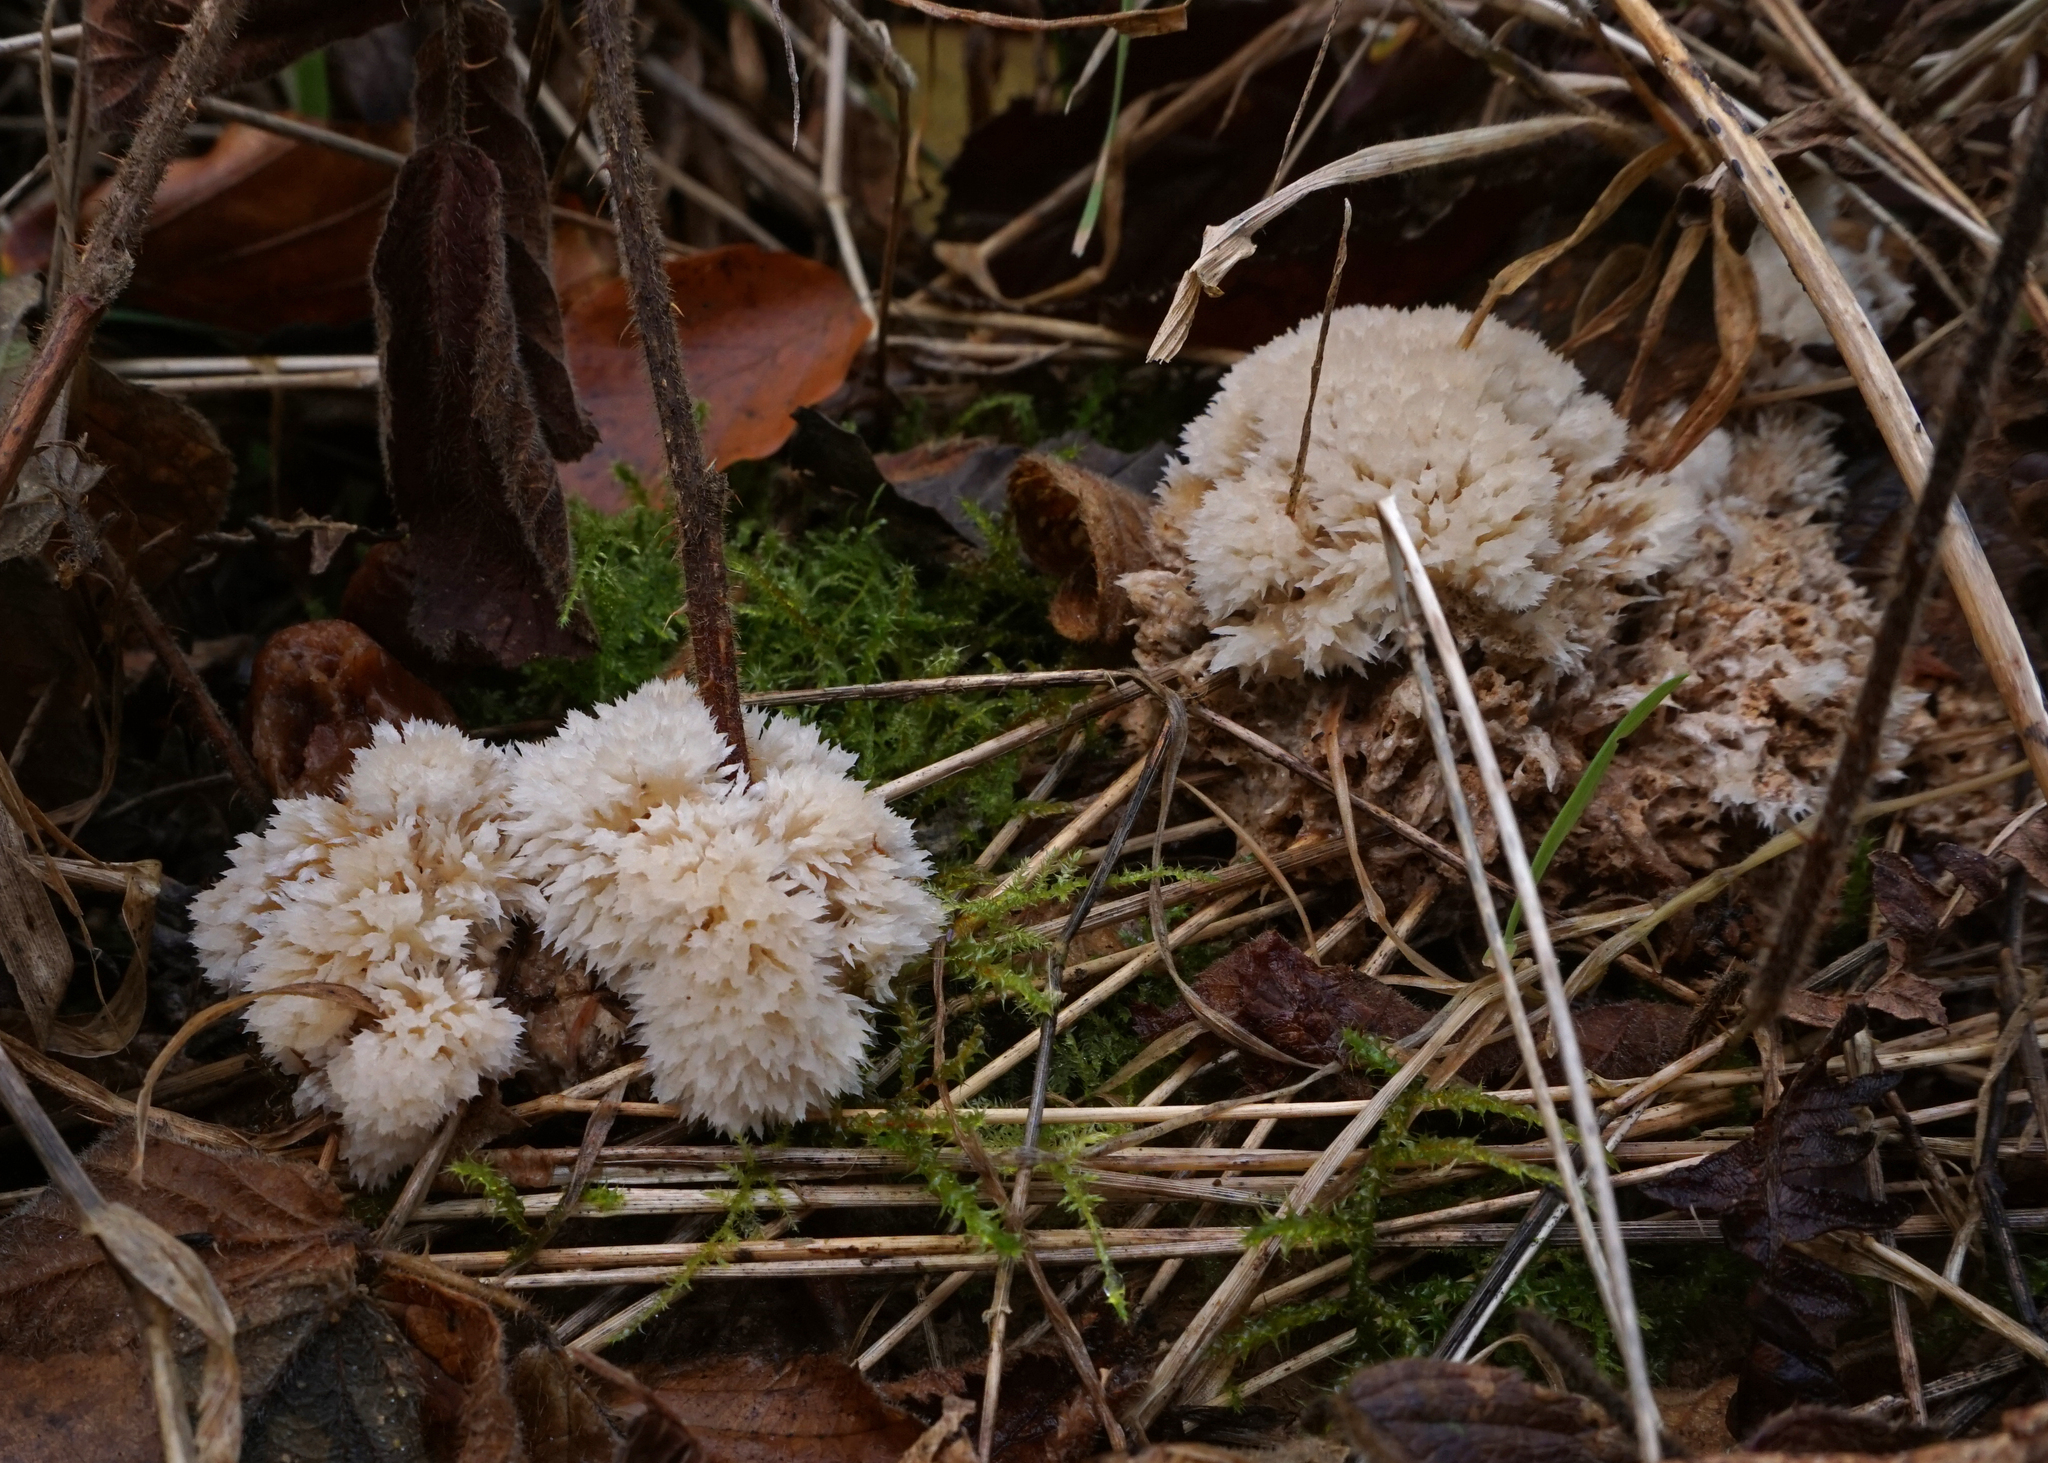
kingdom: Fungi
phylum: Basidiomycota
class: Agaricomycetes
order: Polyporales
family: Dacryobolaceae
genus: Postia
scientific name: Postia ptychogaster
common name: Powderpuff bracket
